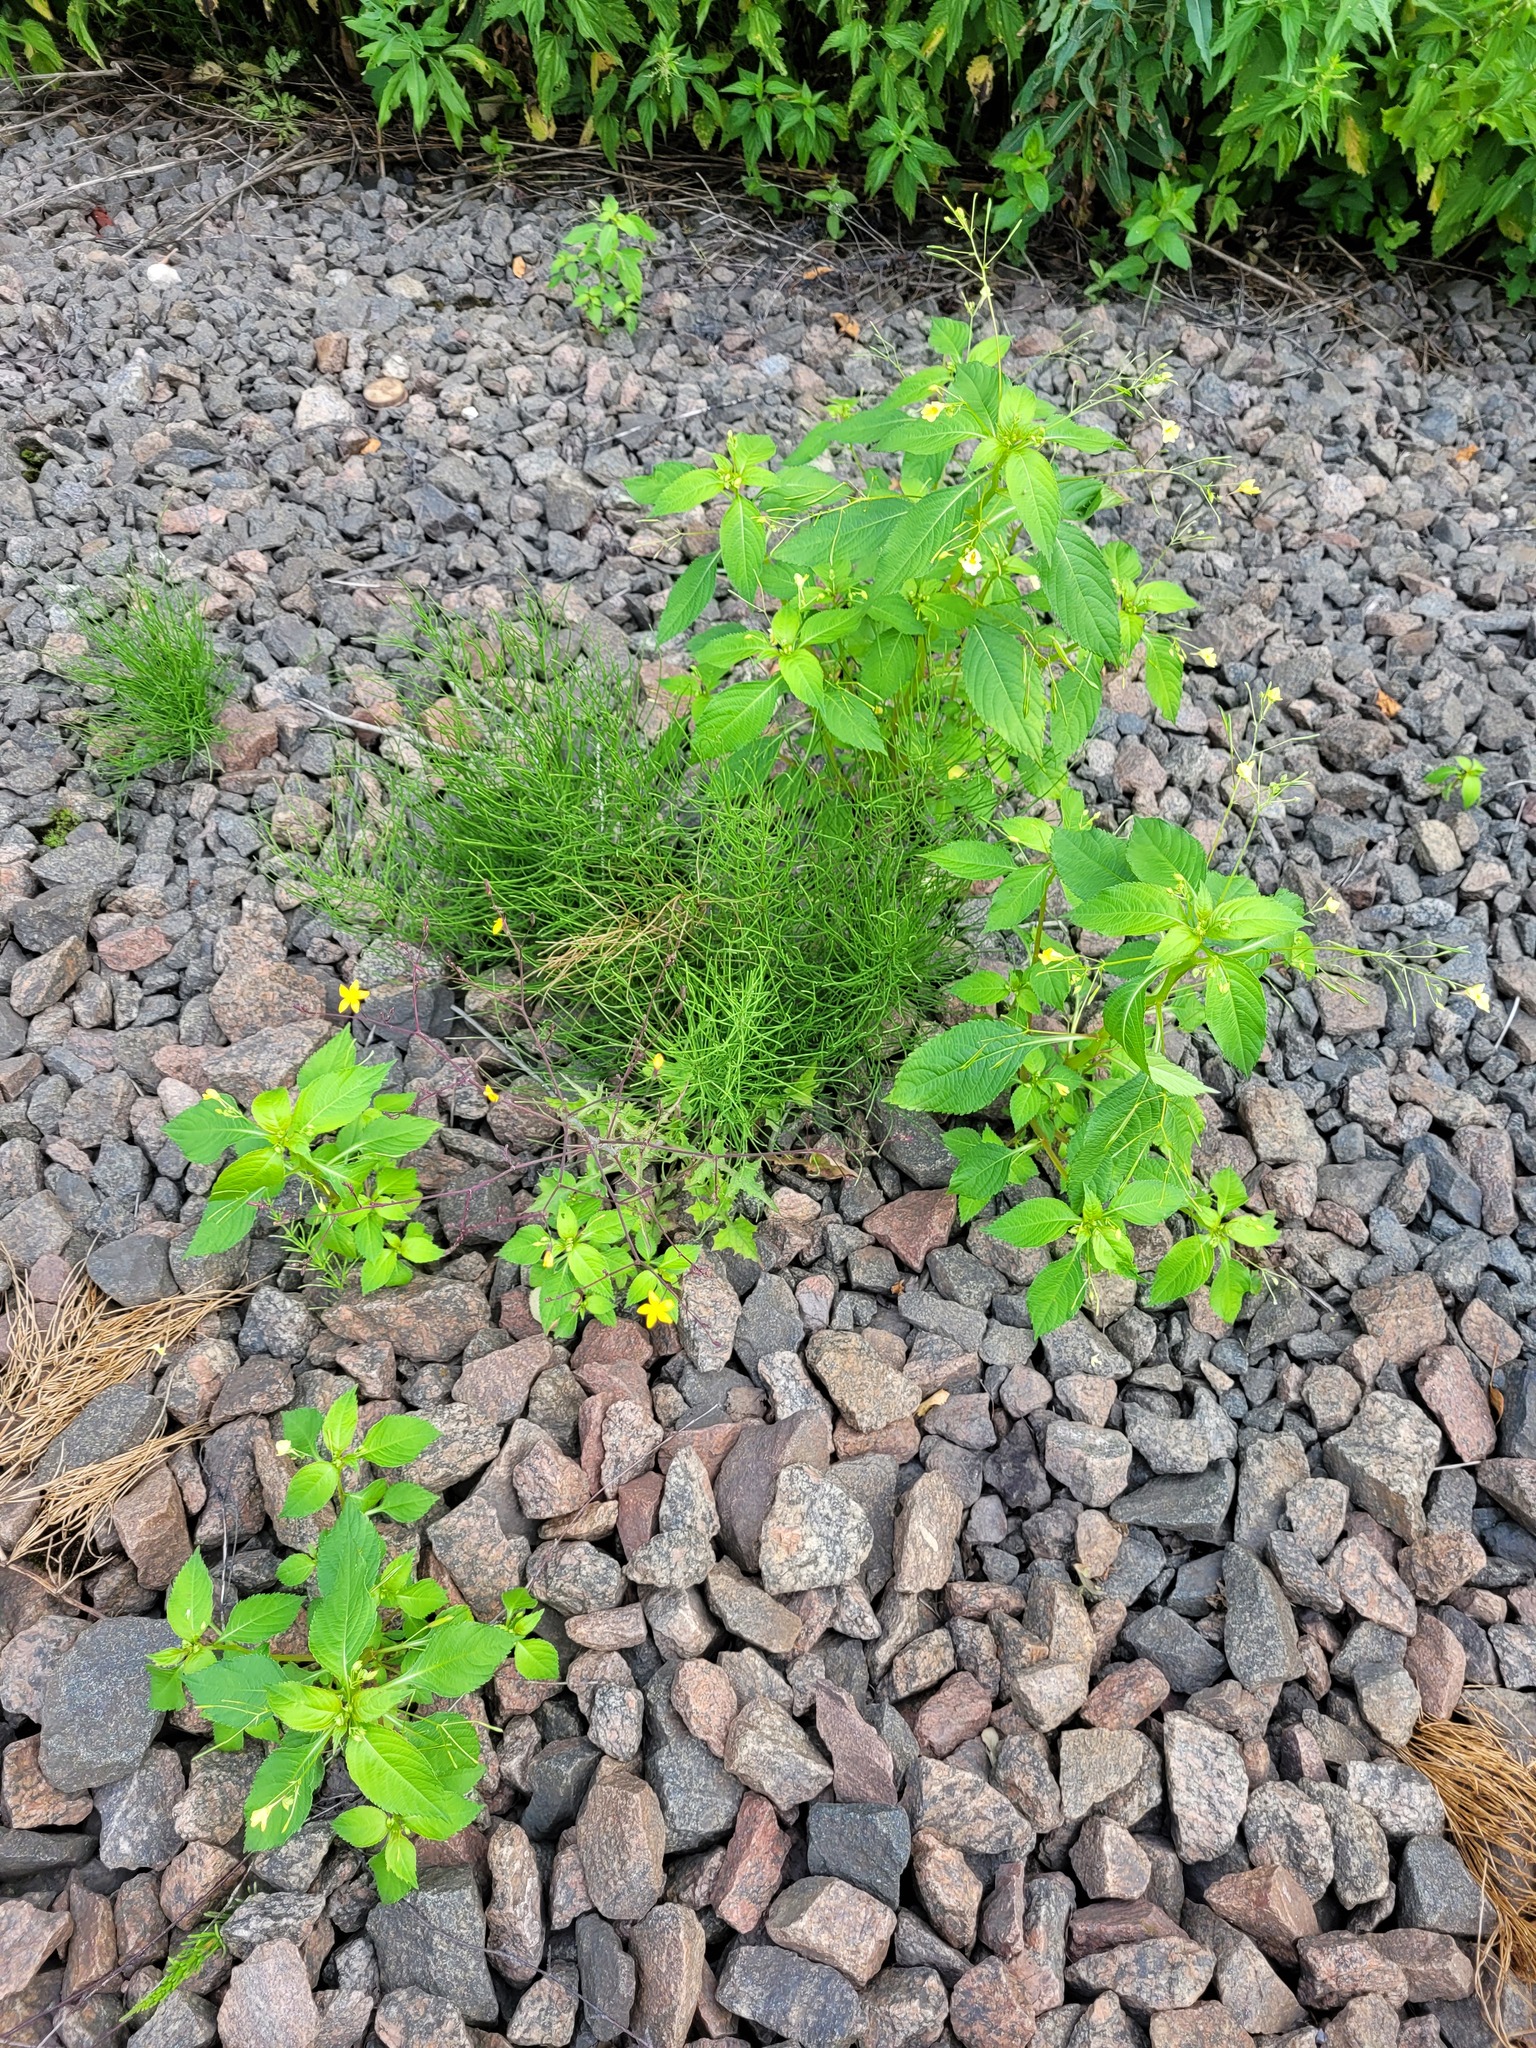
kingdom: Plantae
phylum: Tracheophyta
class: Magnoliopsida
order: Asterales
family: Asteraceae
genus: Mycelis
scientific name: Mycelis muralis
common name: Wall lettuce
